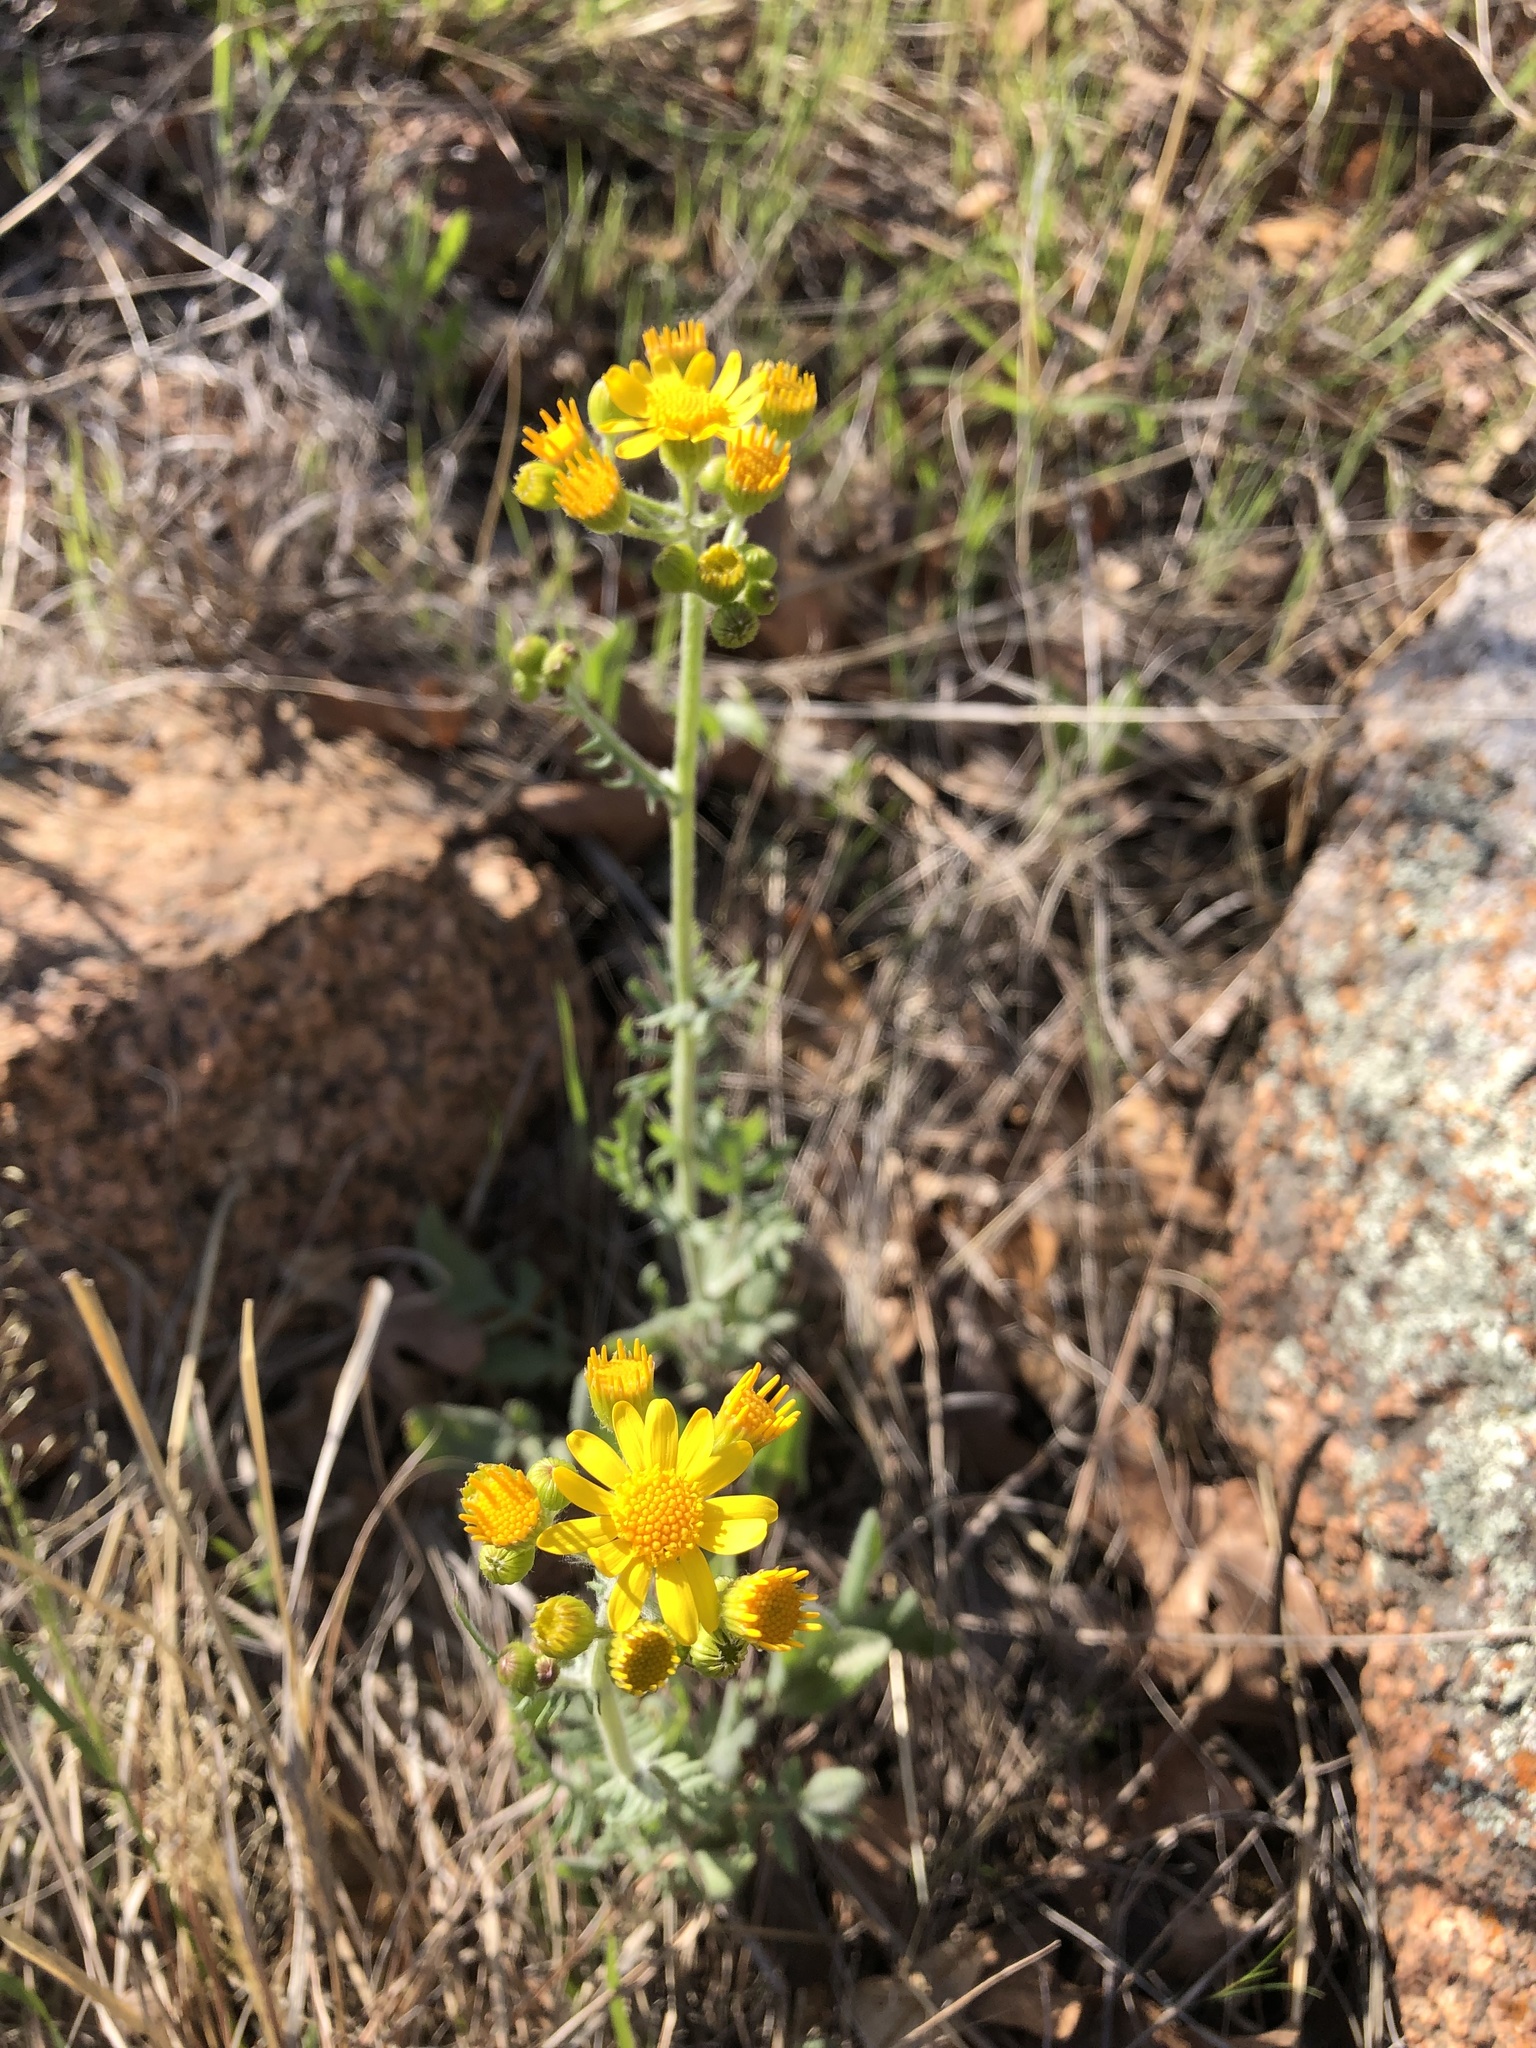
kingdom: Plantae
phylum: Tracheophyta
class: Magnoliopsida
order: Asterales
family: Asteraceae
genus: Packera
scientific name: Packera plattensis
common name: Prairie groundsel
